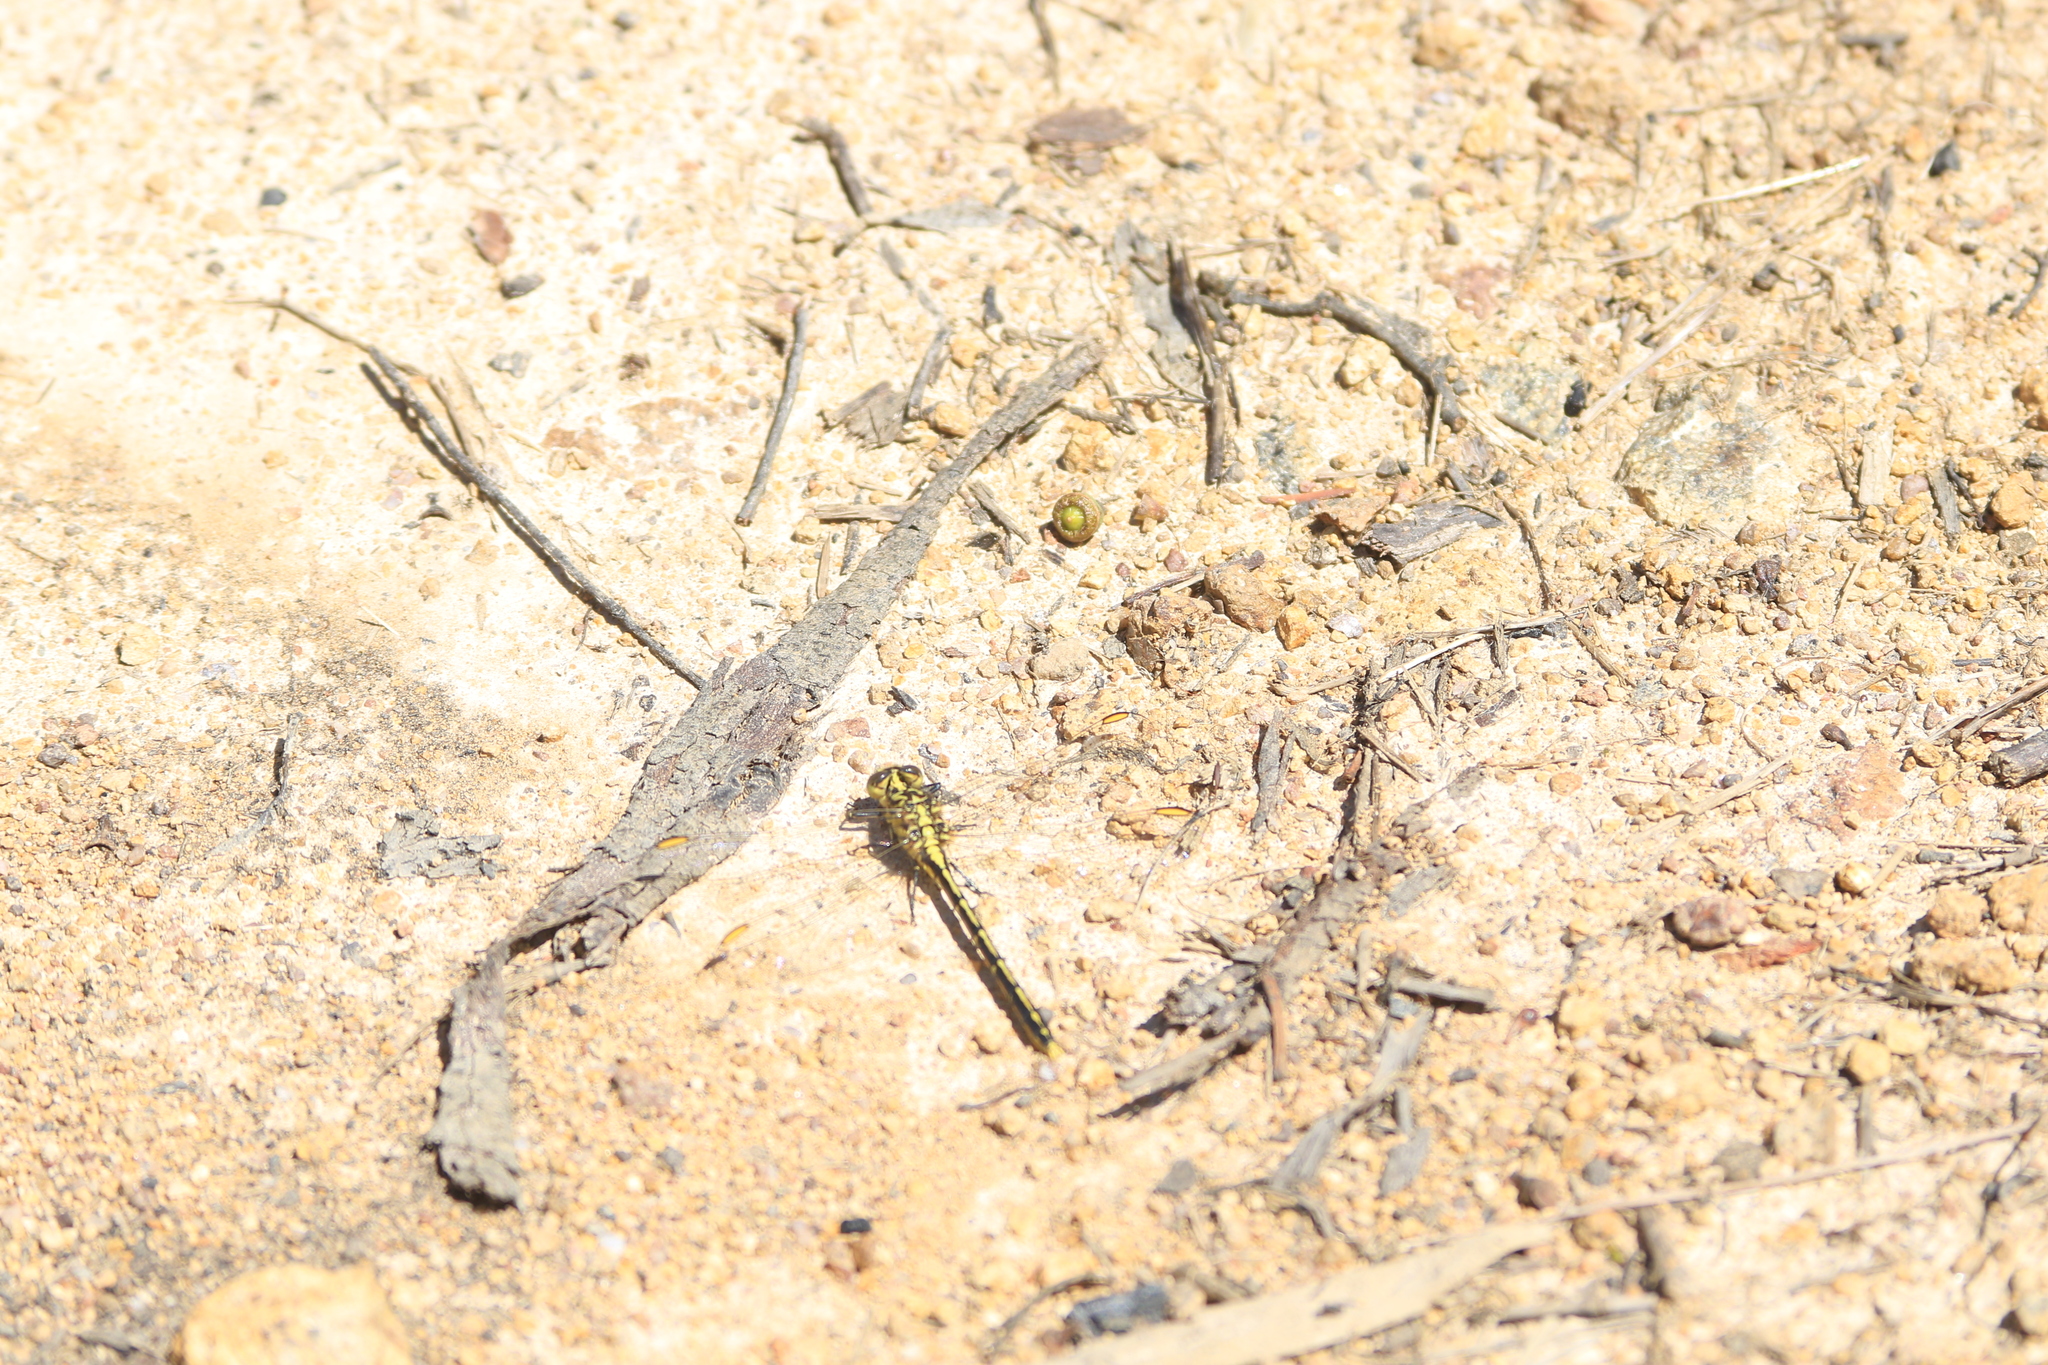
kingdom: Animalia
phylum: Arthropoda
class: Insecta
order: Odonata
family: Gomphidae
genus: Austrogomphus
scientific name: Austrogomphus guerini
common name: Yellow-striped hunter
